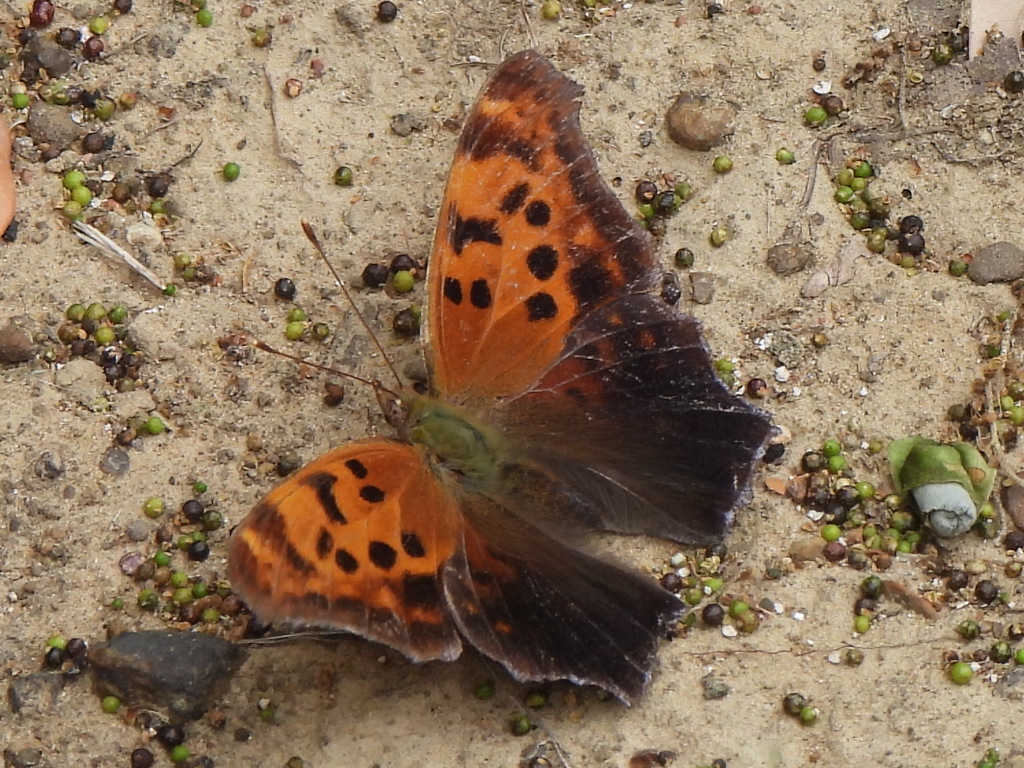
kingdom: Animalia
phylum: Arthropoda
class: Insecta
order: Lepidoptera
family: Nymphalidae
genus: Polygonia
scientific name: Polygonia interrogationis
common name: Question mark
